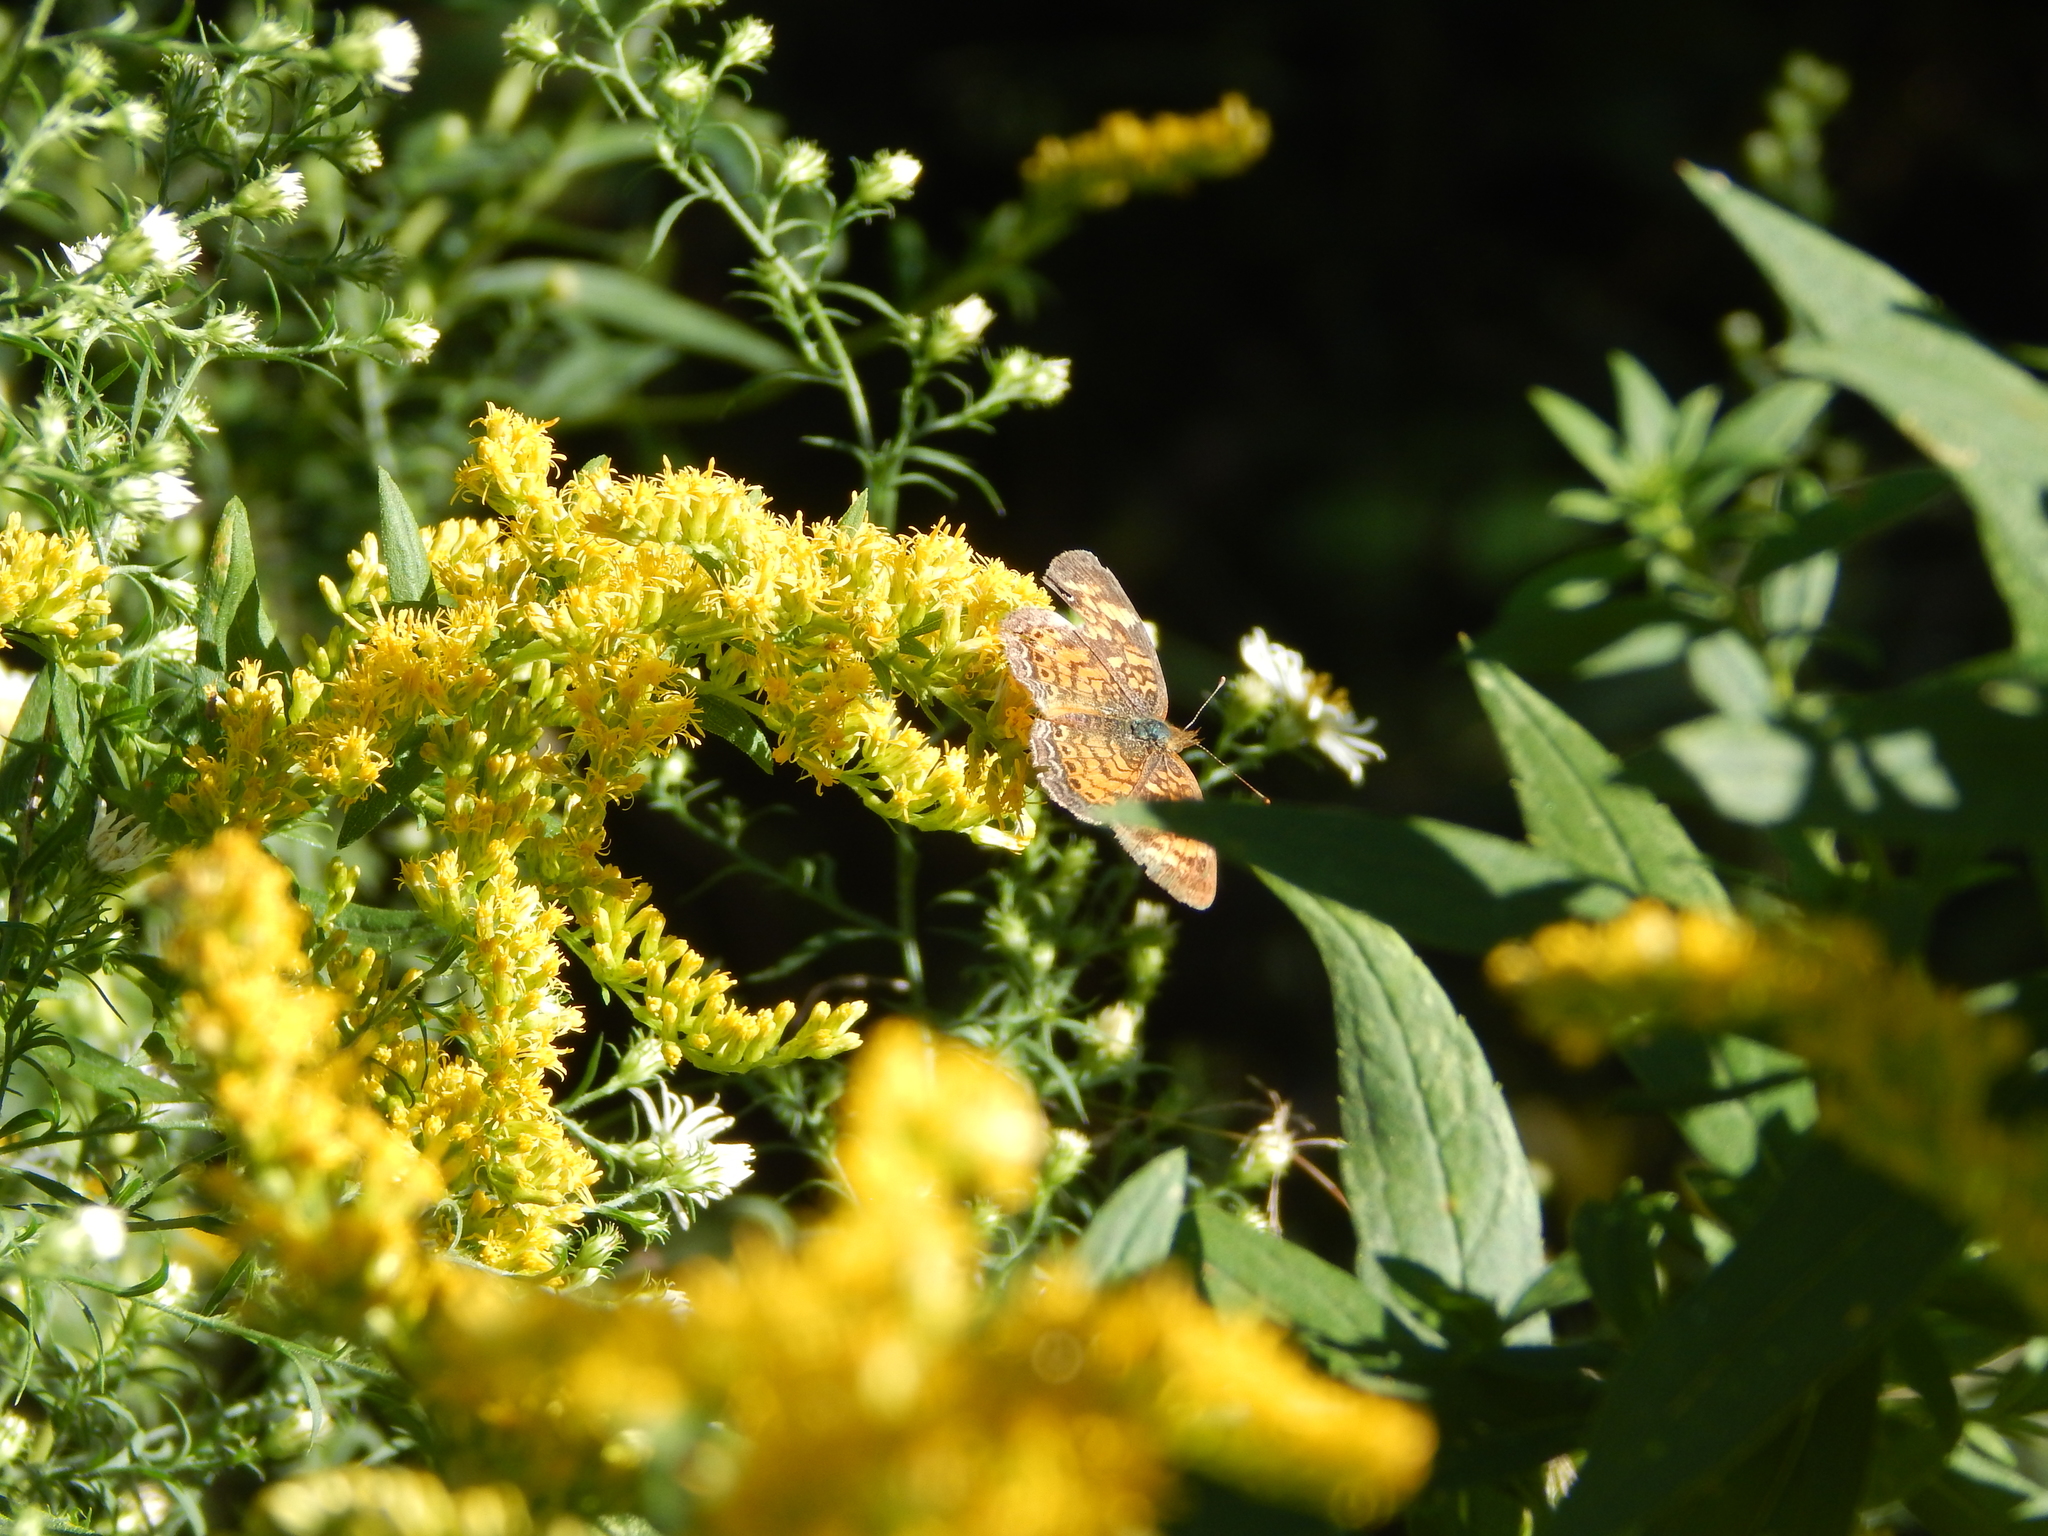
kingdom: Animalia
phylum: Arthropoda
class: Insecta
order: Lepidoptera
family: Nymphalidae
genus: Phyciodes
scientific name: Phyciodes tharos
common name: Pearl crescent
